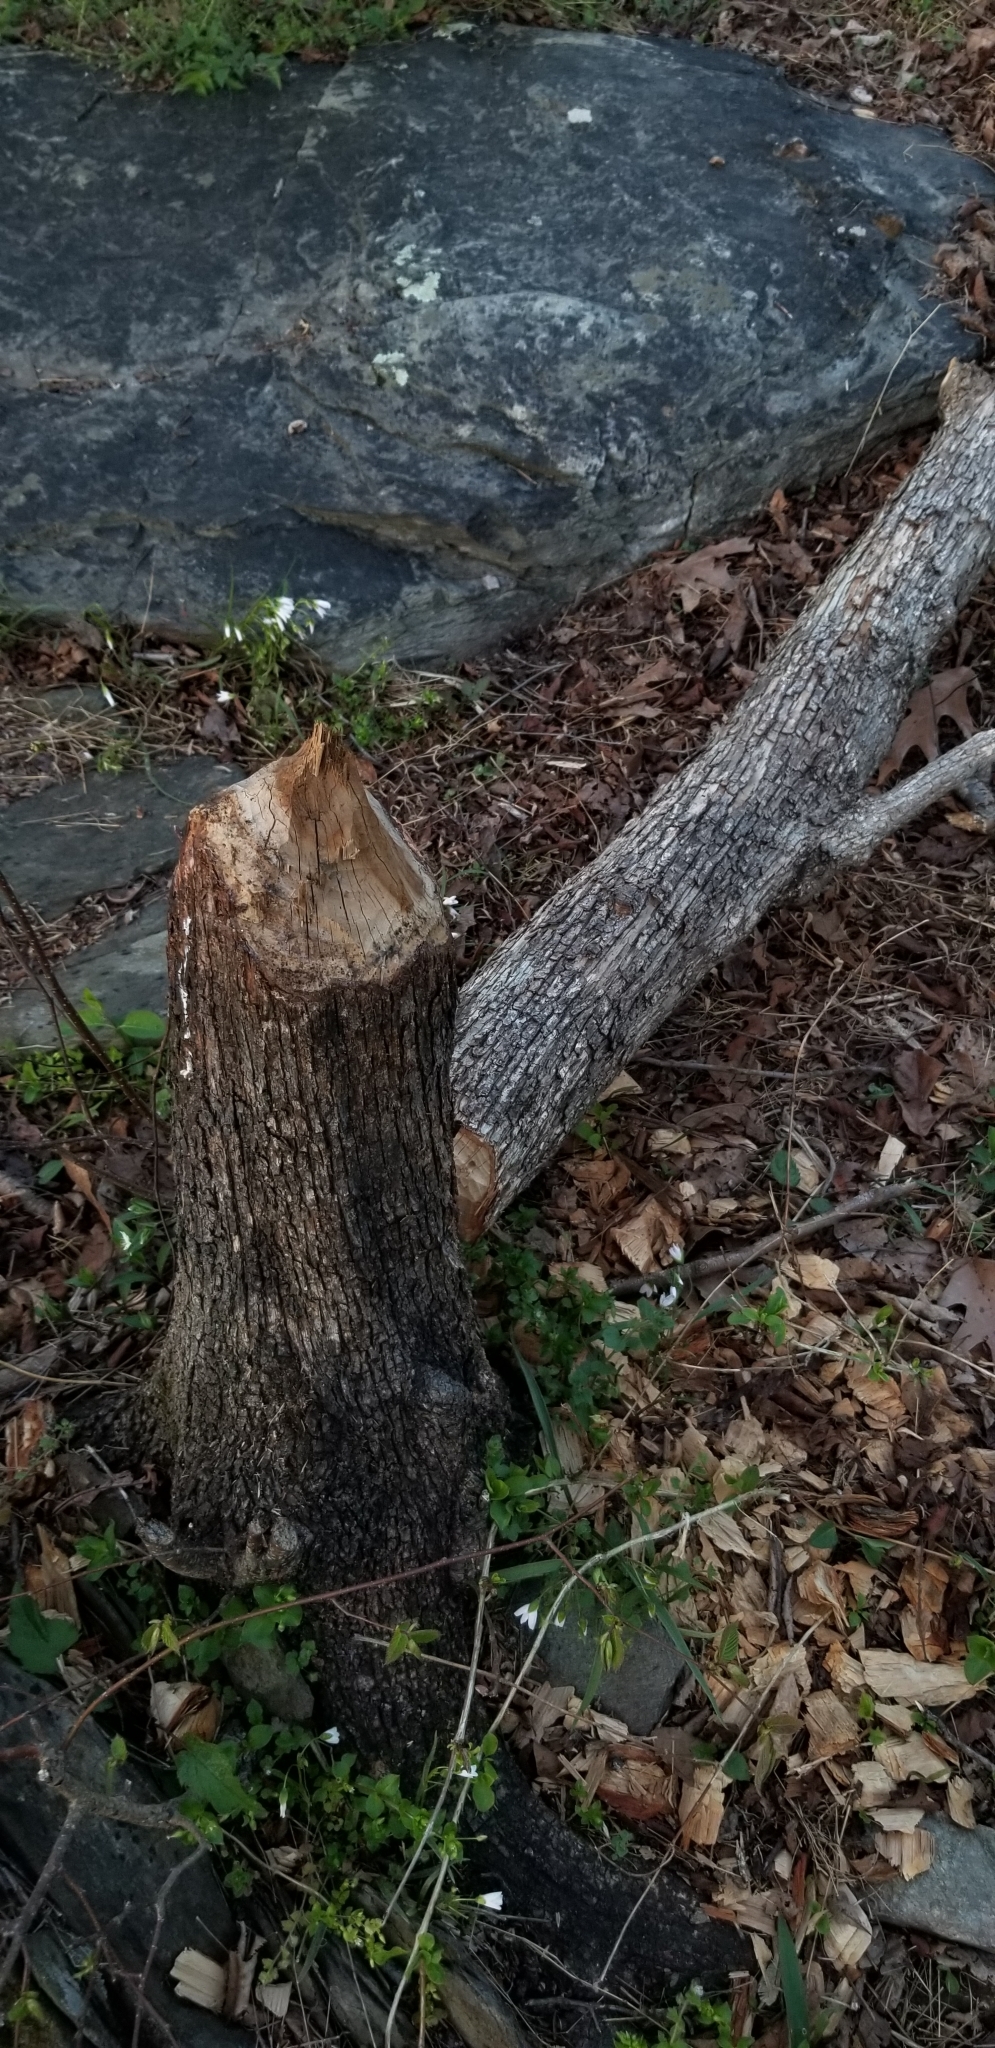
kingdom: Animalia
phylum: Chordata
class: Mammalia
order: Rodentia
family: Castoridae
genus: Castor
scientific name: Castor canadensis
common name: American beaver
